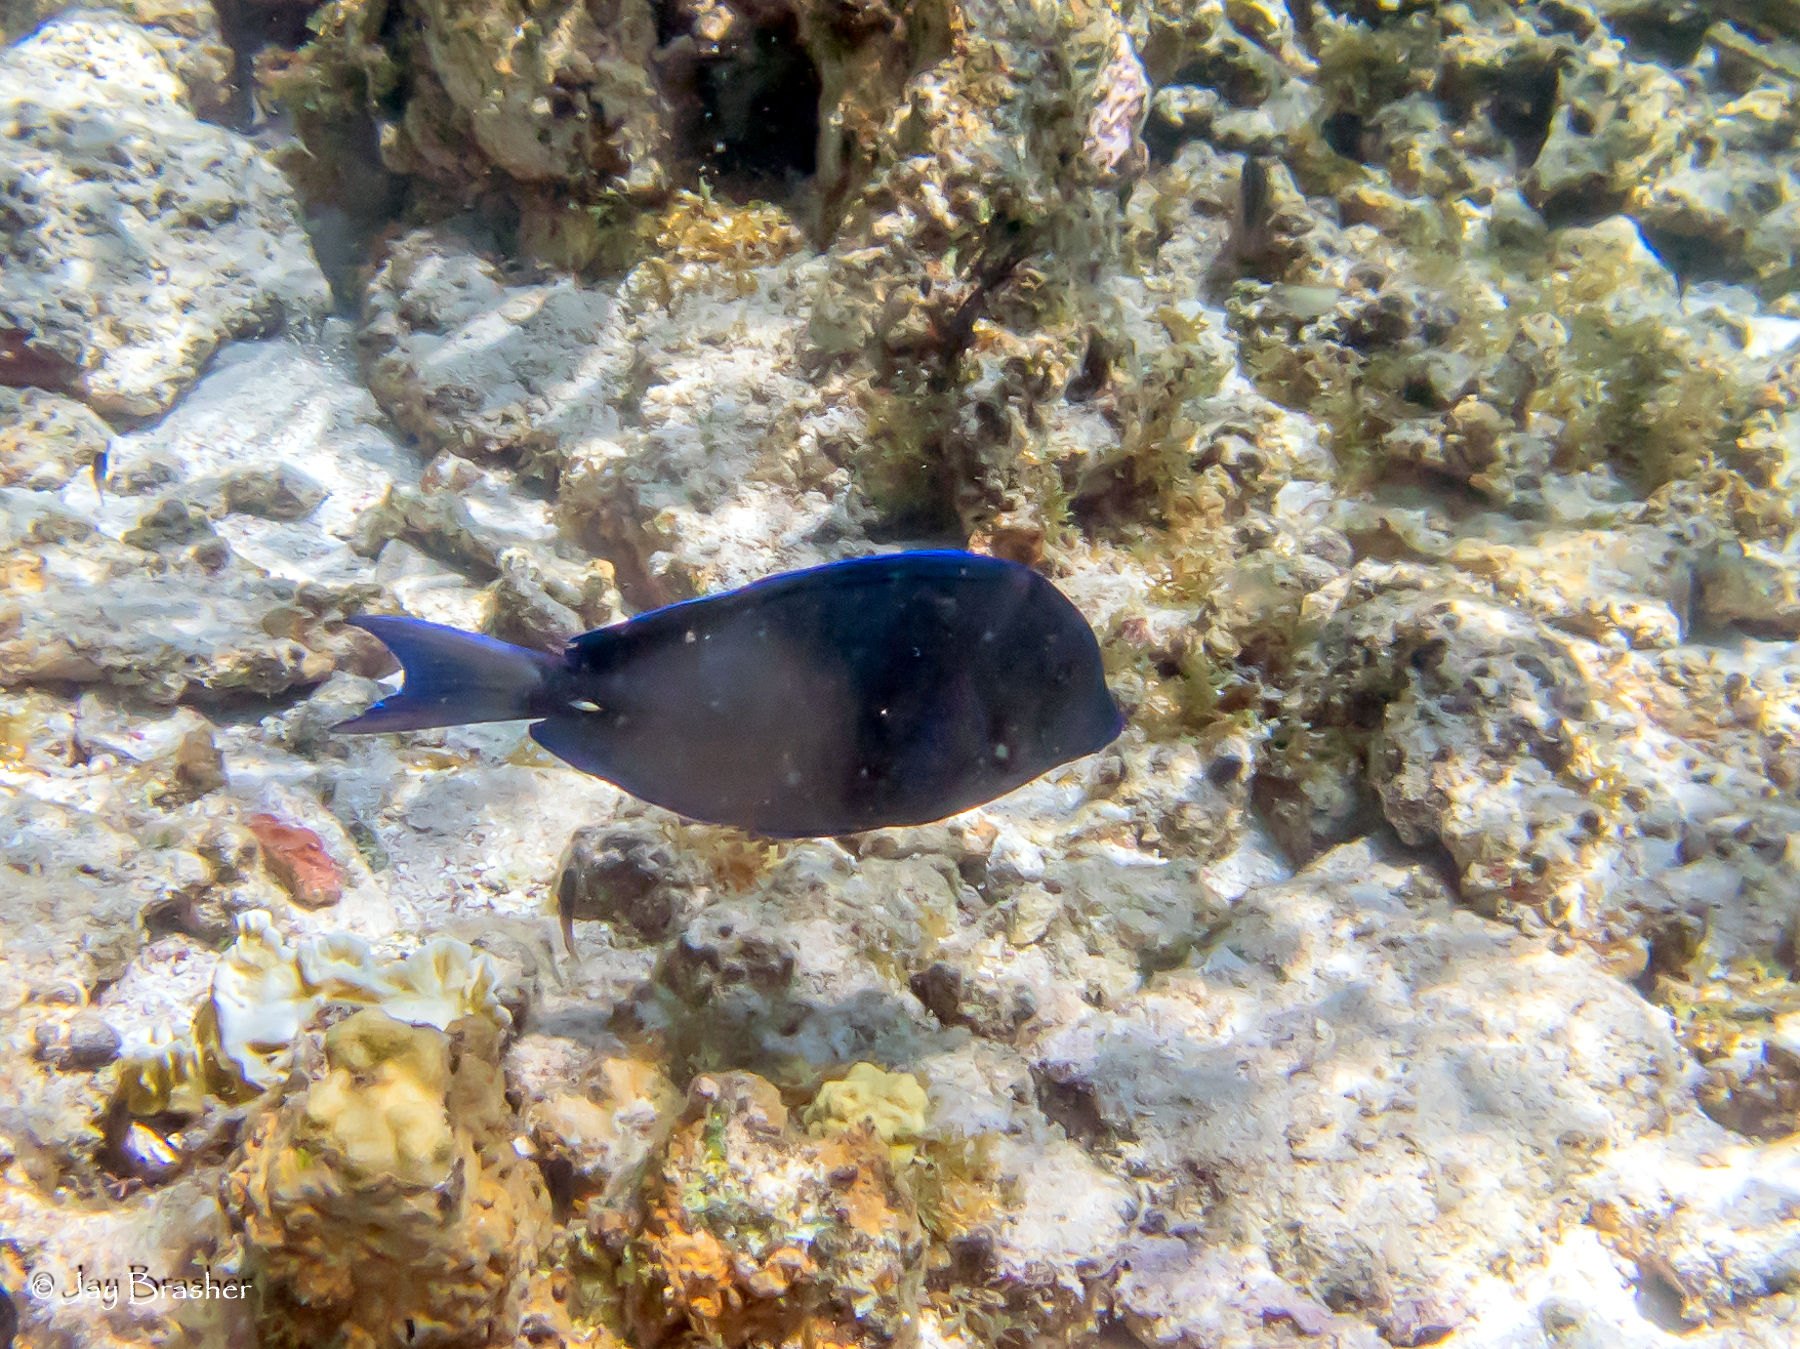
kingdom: Animalia
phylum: Chordata
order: Perciformes
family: Acanthuridae
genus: Acanthurus
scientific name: Acanthurus coeruleus
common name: Blue tang
